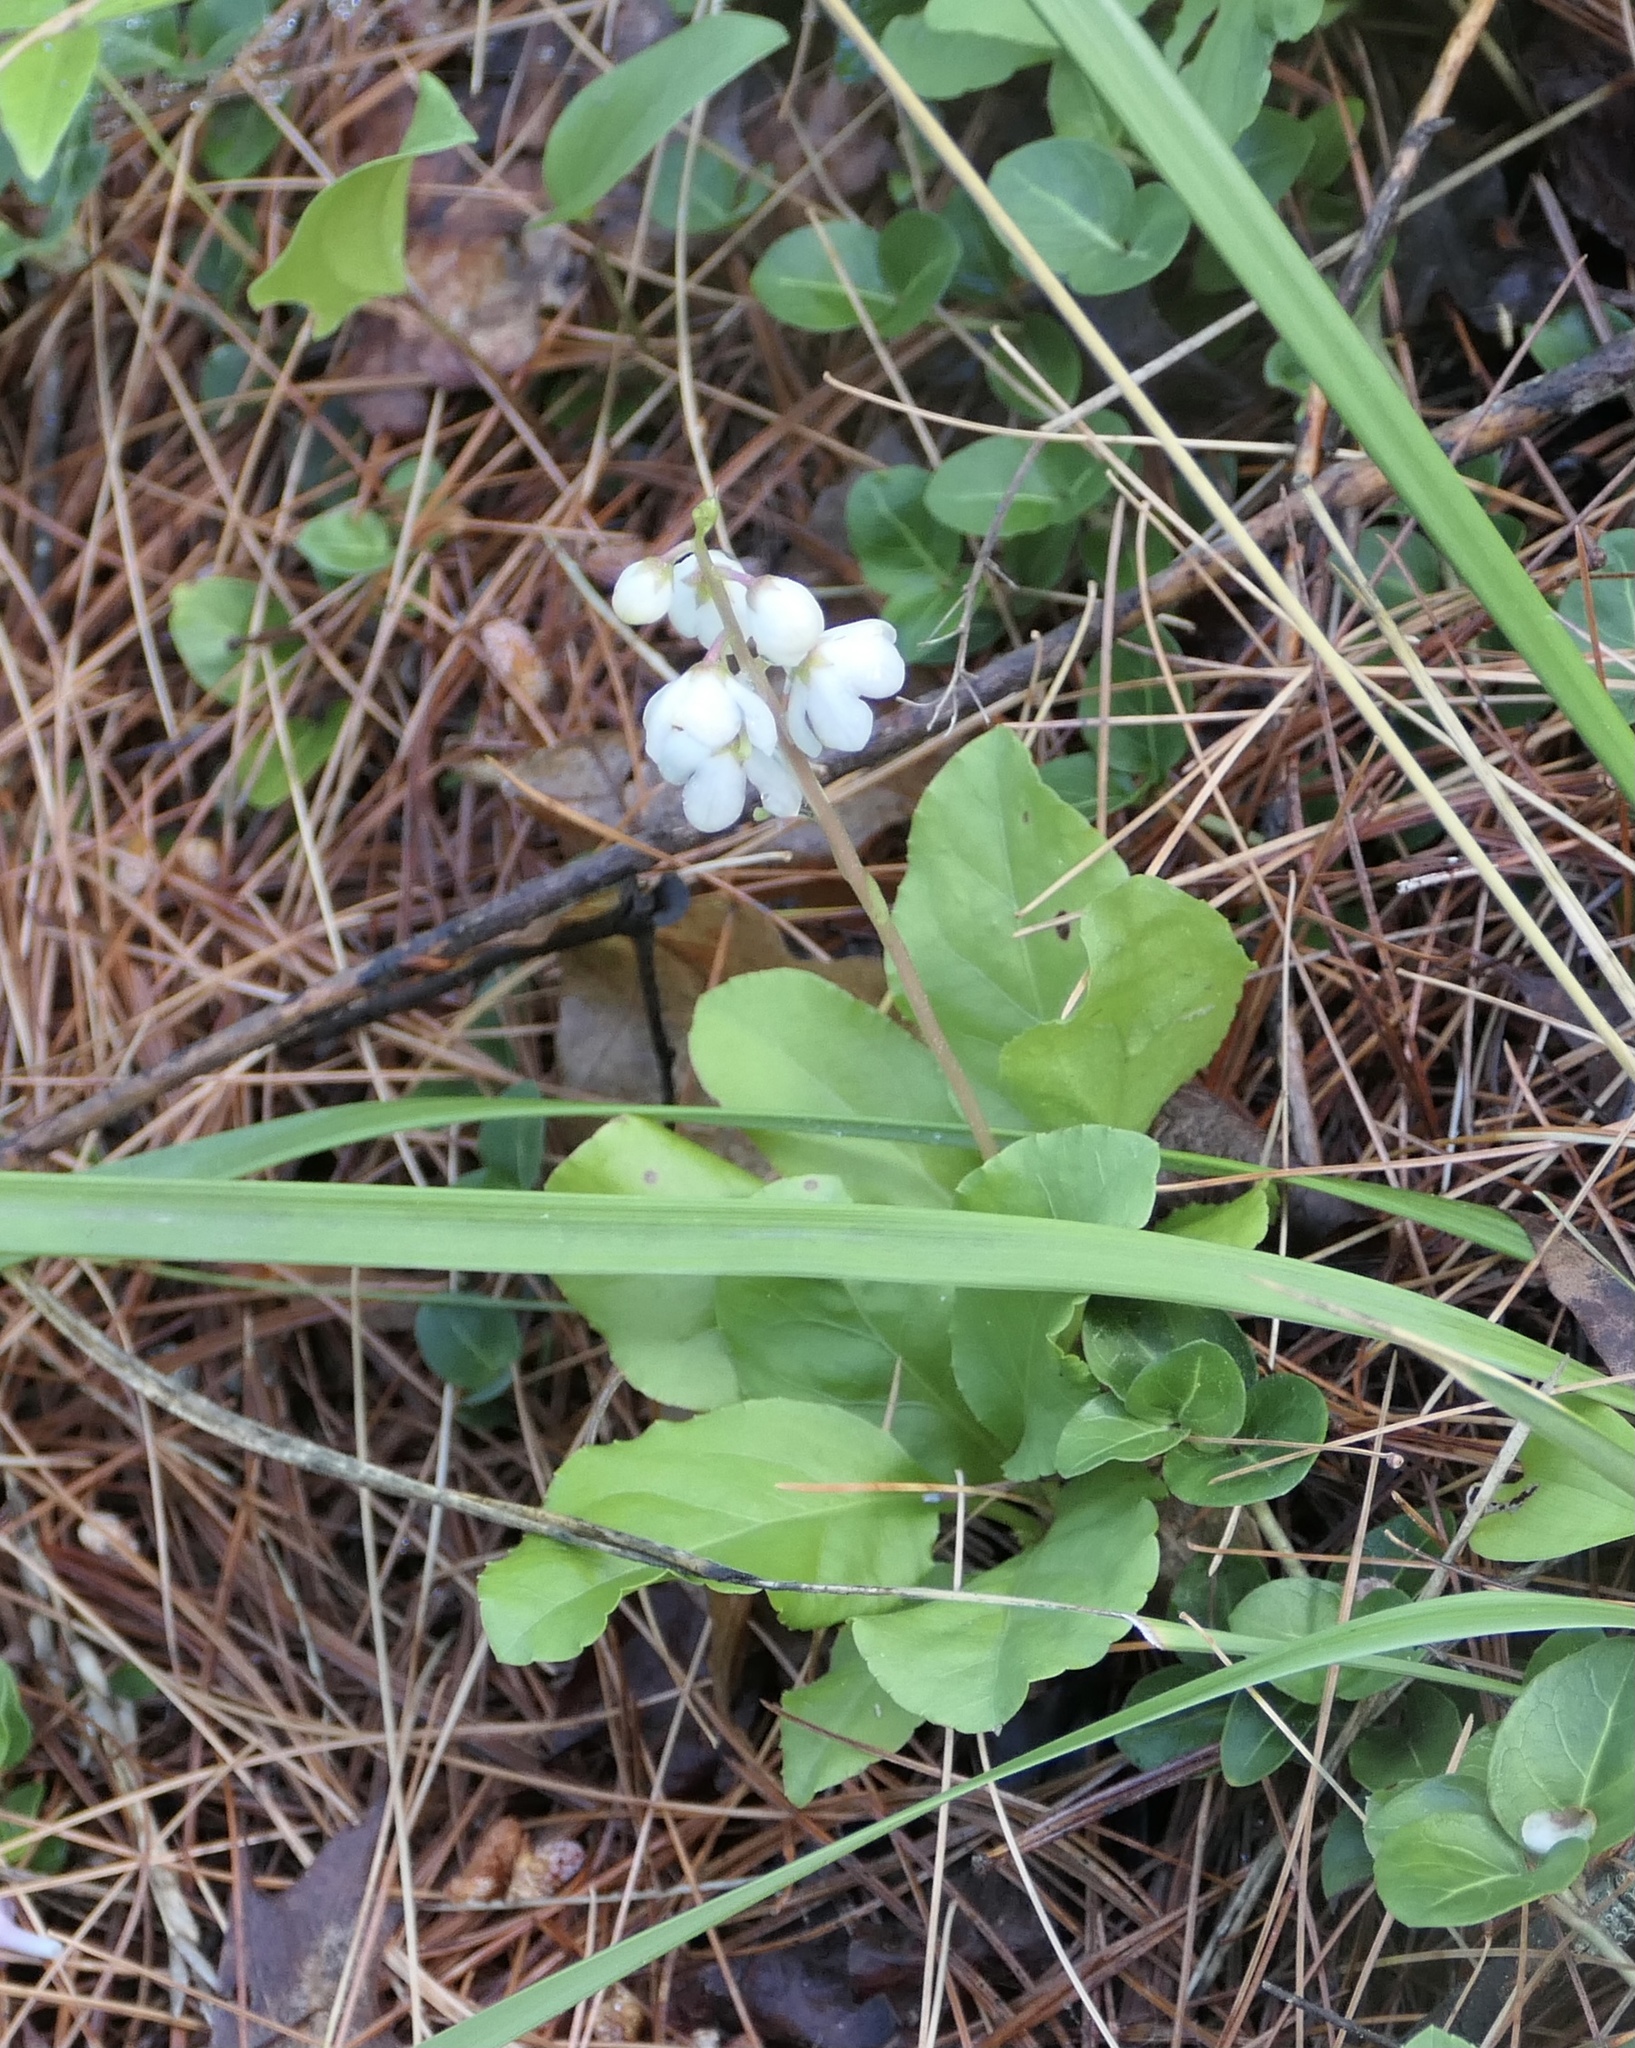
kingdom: Plantae
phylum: Tracheophyta
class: Magnoliopsida
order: Ericales
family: Ericaceae
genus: Pyrola
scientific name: Pyrola elliptica
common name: Shinleaf
